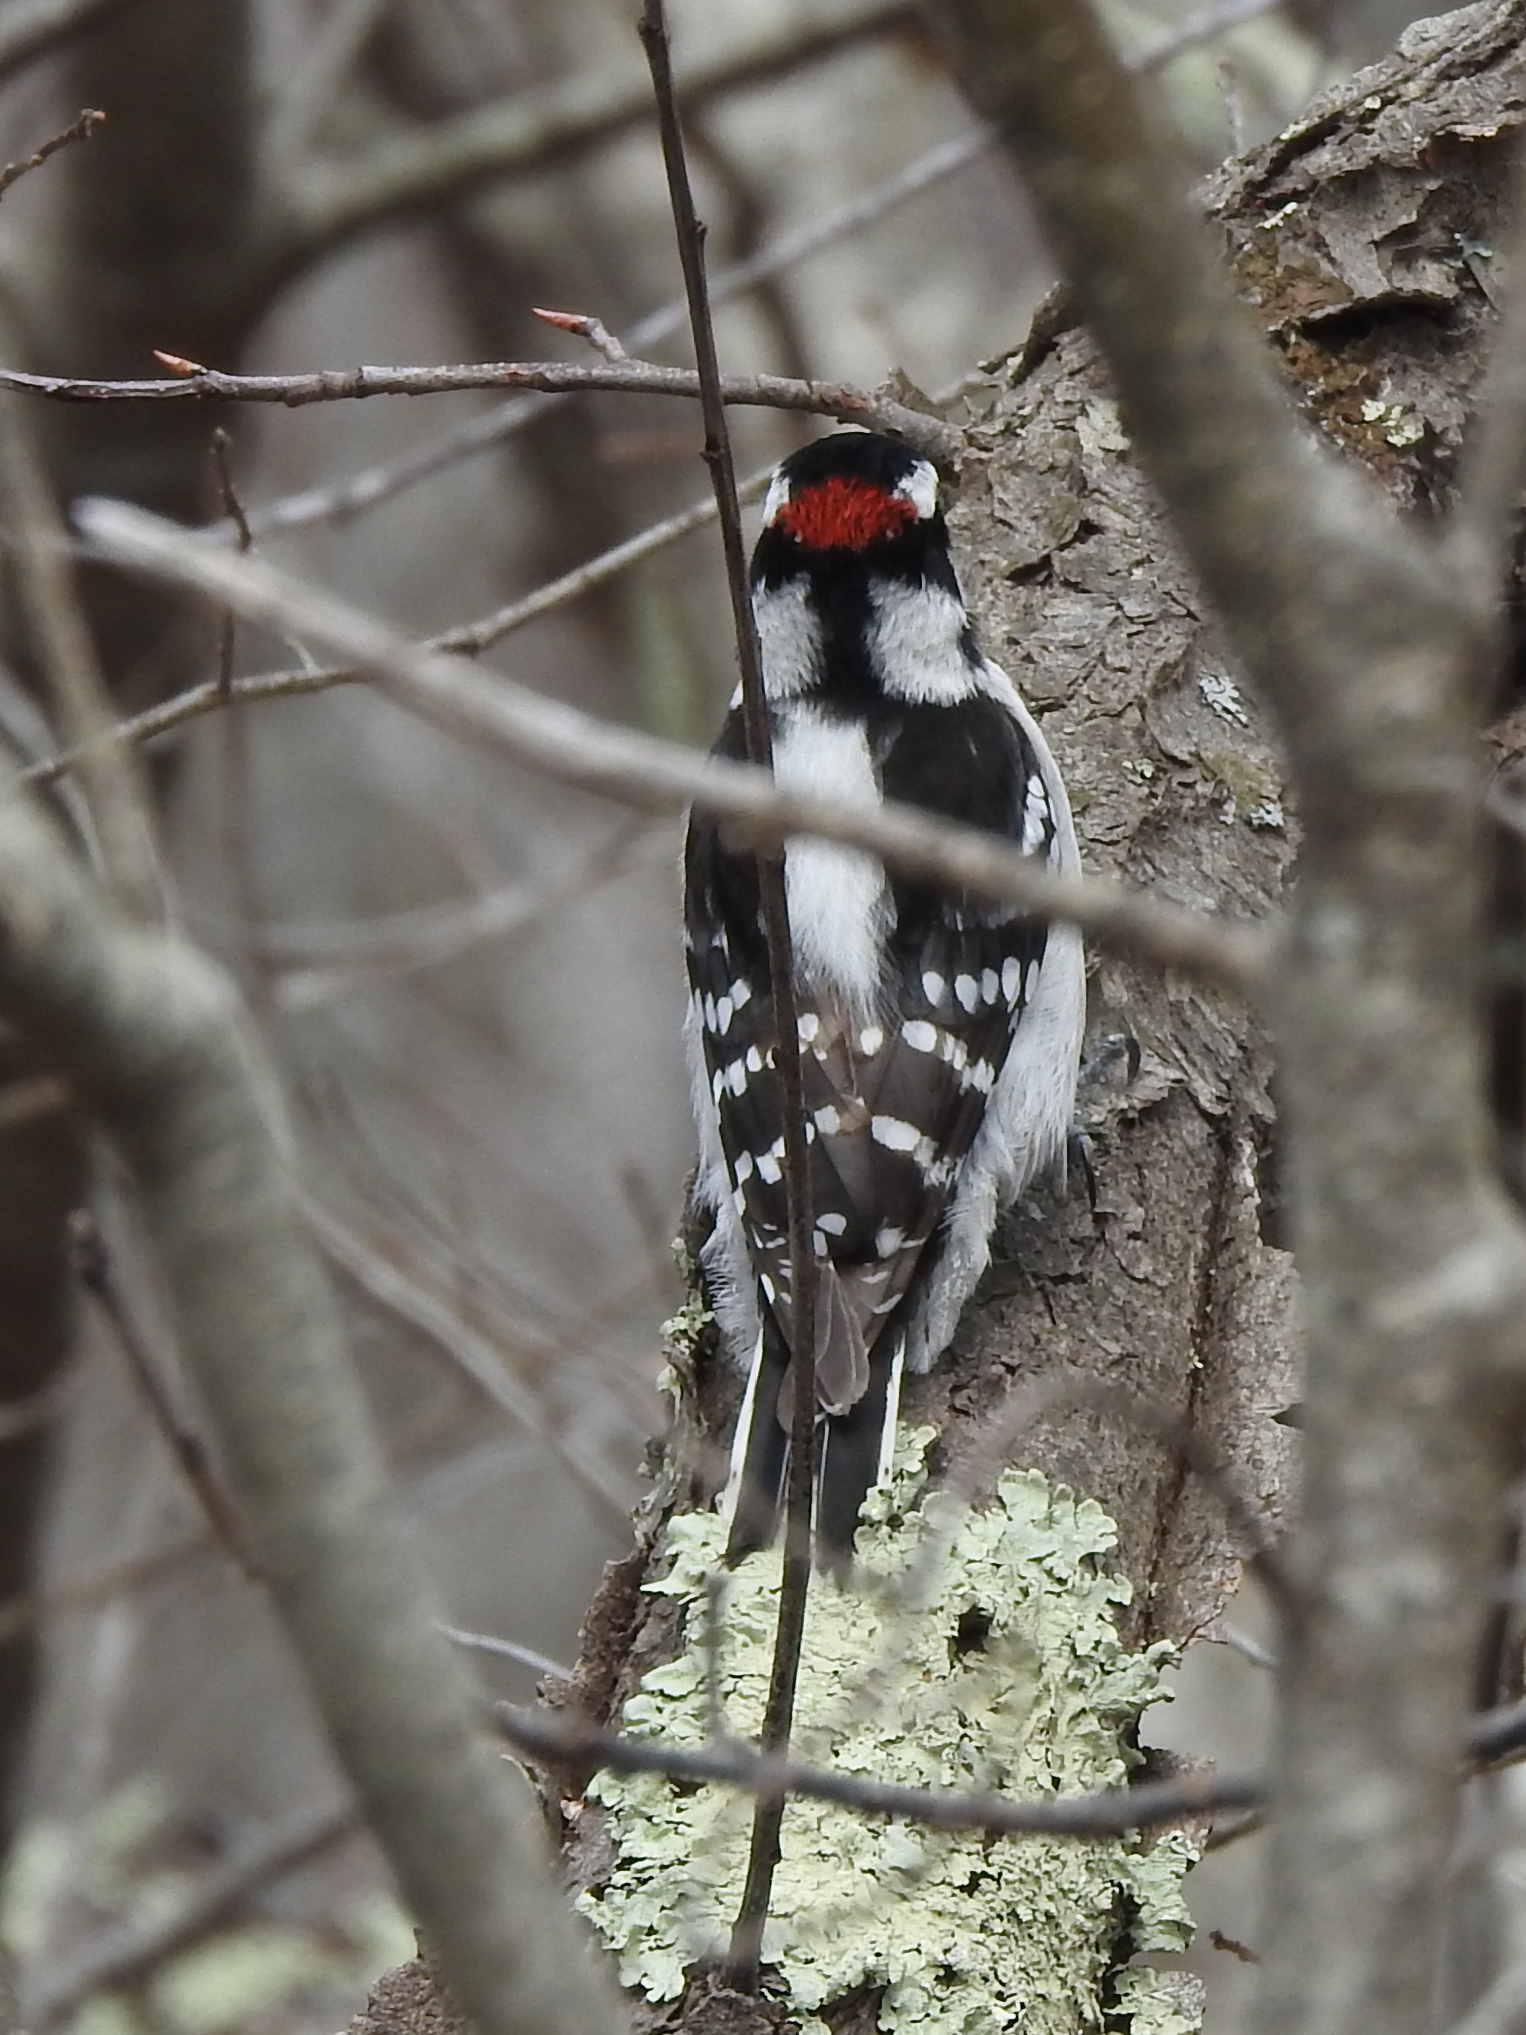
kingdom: Animalia
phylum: Chordata
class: Aves
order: Piciformes
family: Picidae
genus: Dryobates
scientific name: Dryobates pubescens
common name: Downy woodpecker
